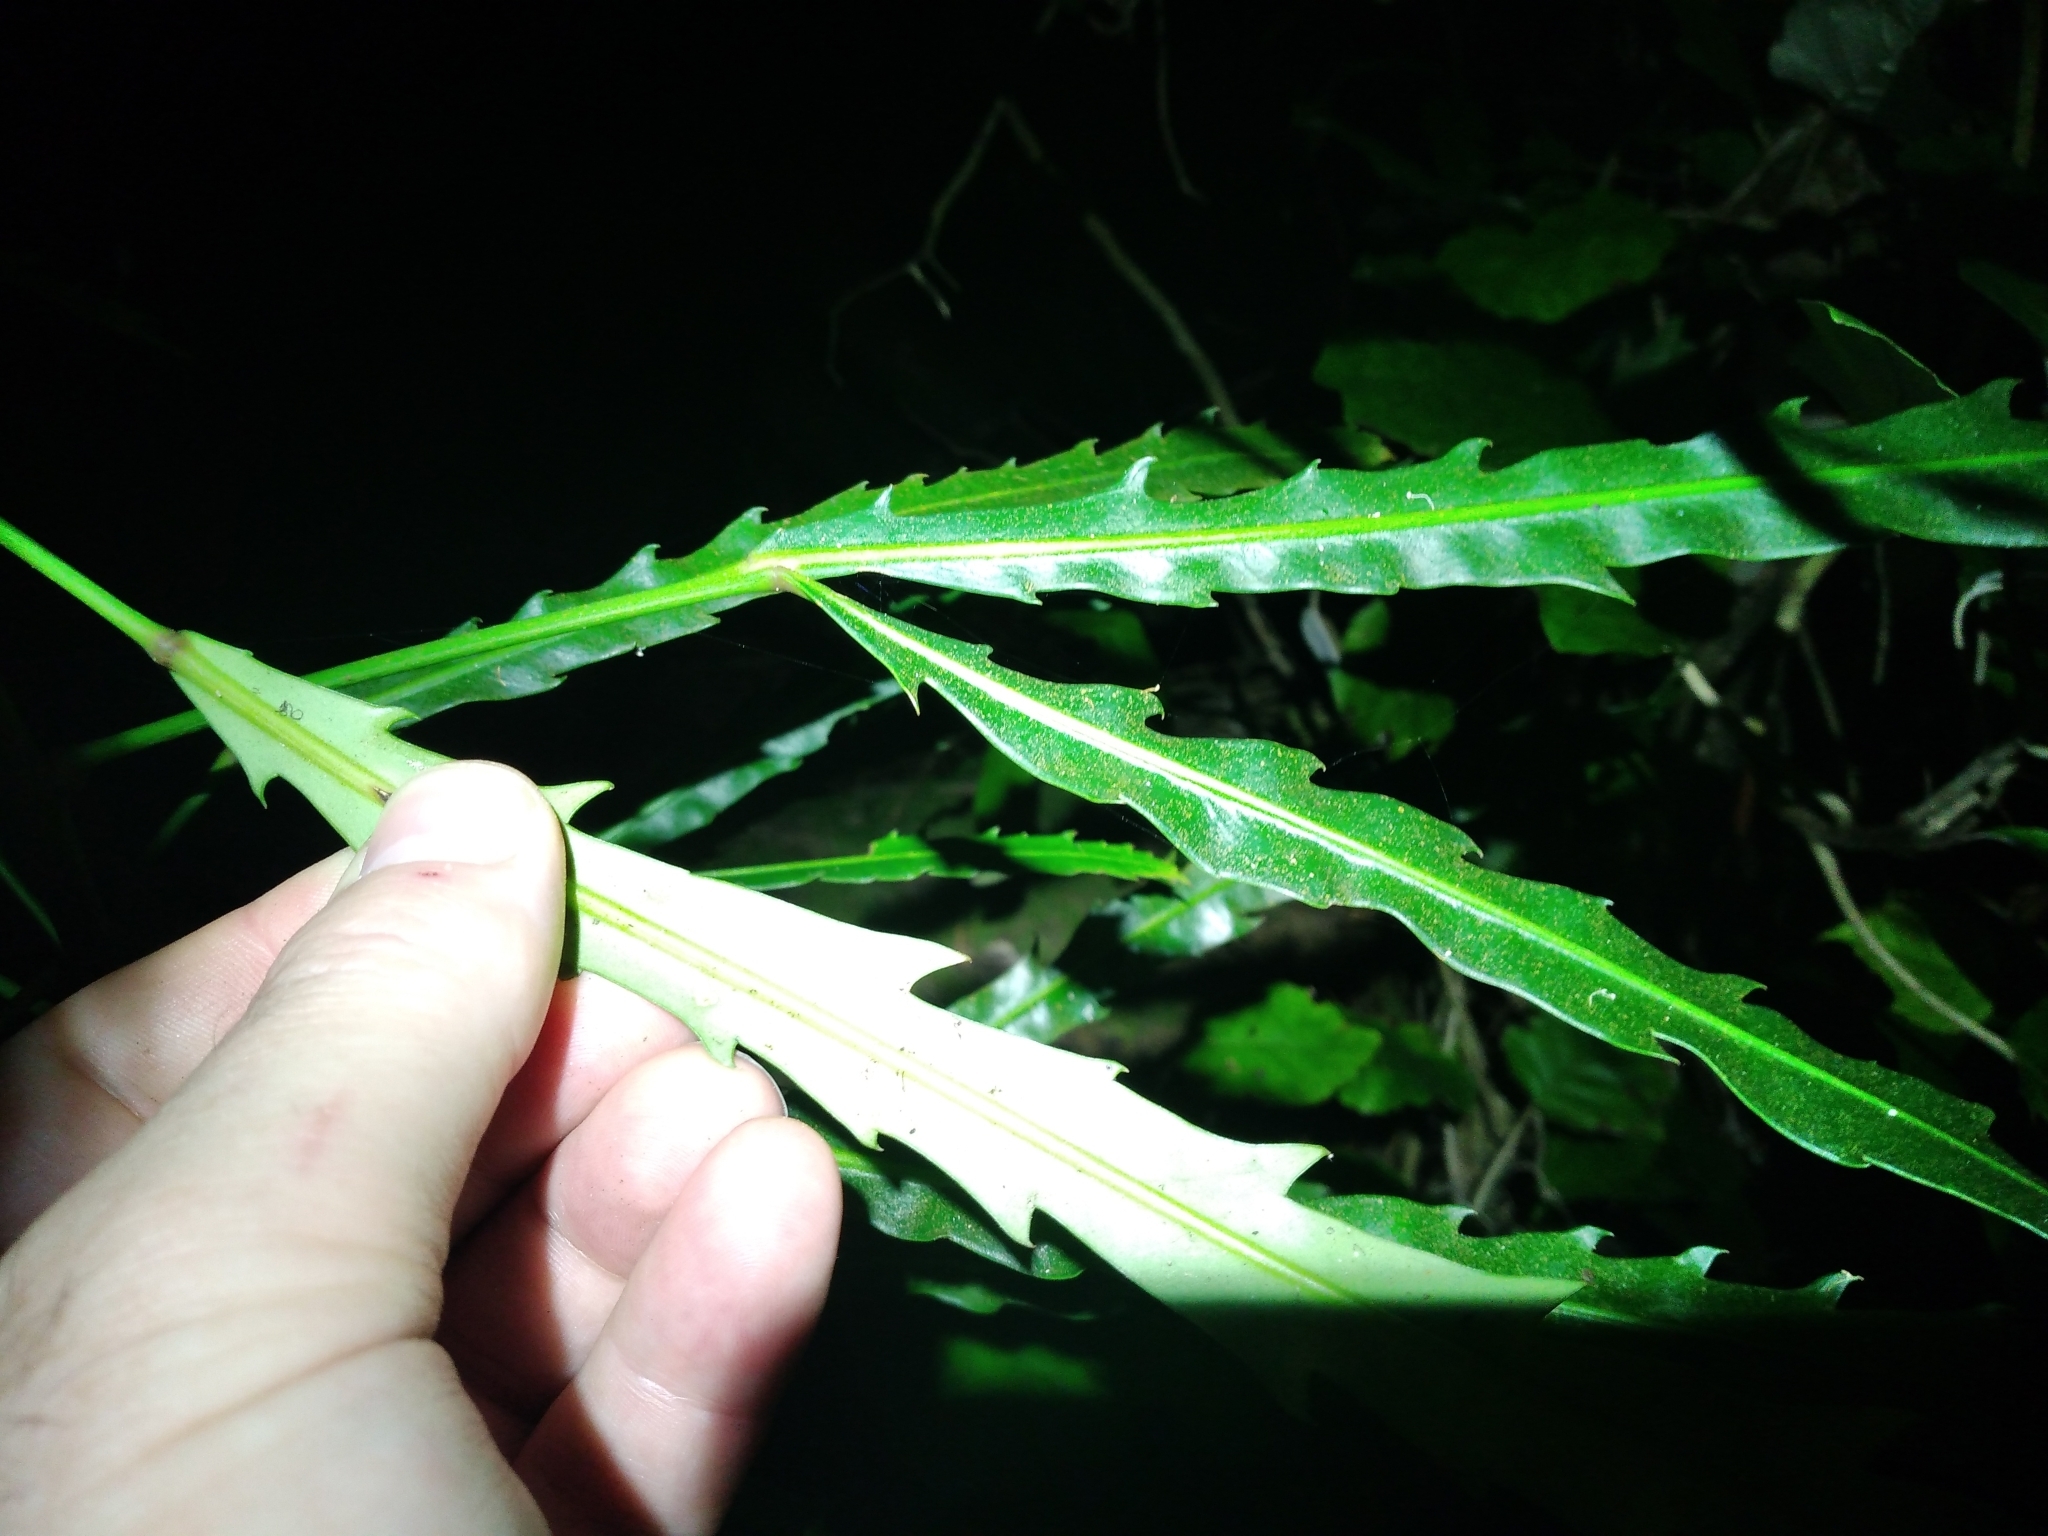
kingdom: Plantae
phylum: Tracheophyta
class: Magnoliopsida
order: Apiales
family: Araliaceae
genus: Pseudopanax
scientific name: Pseudopanax
